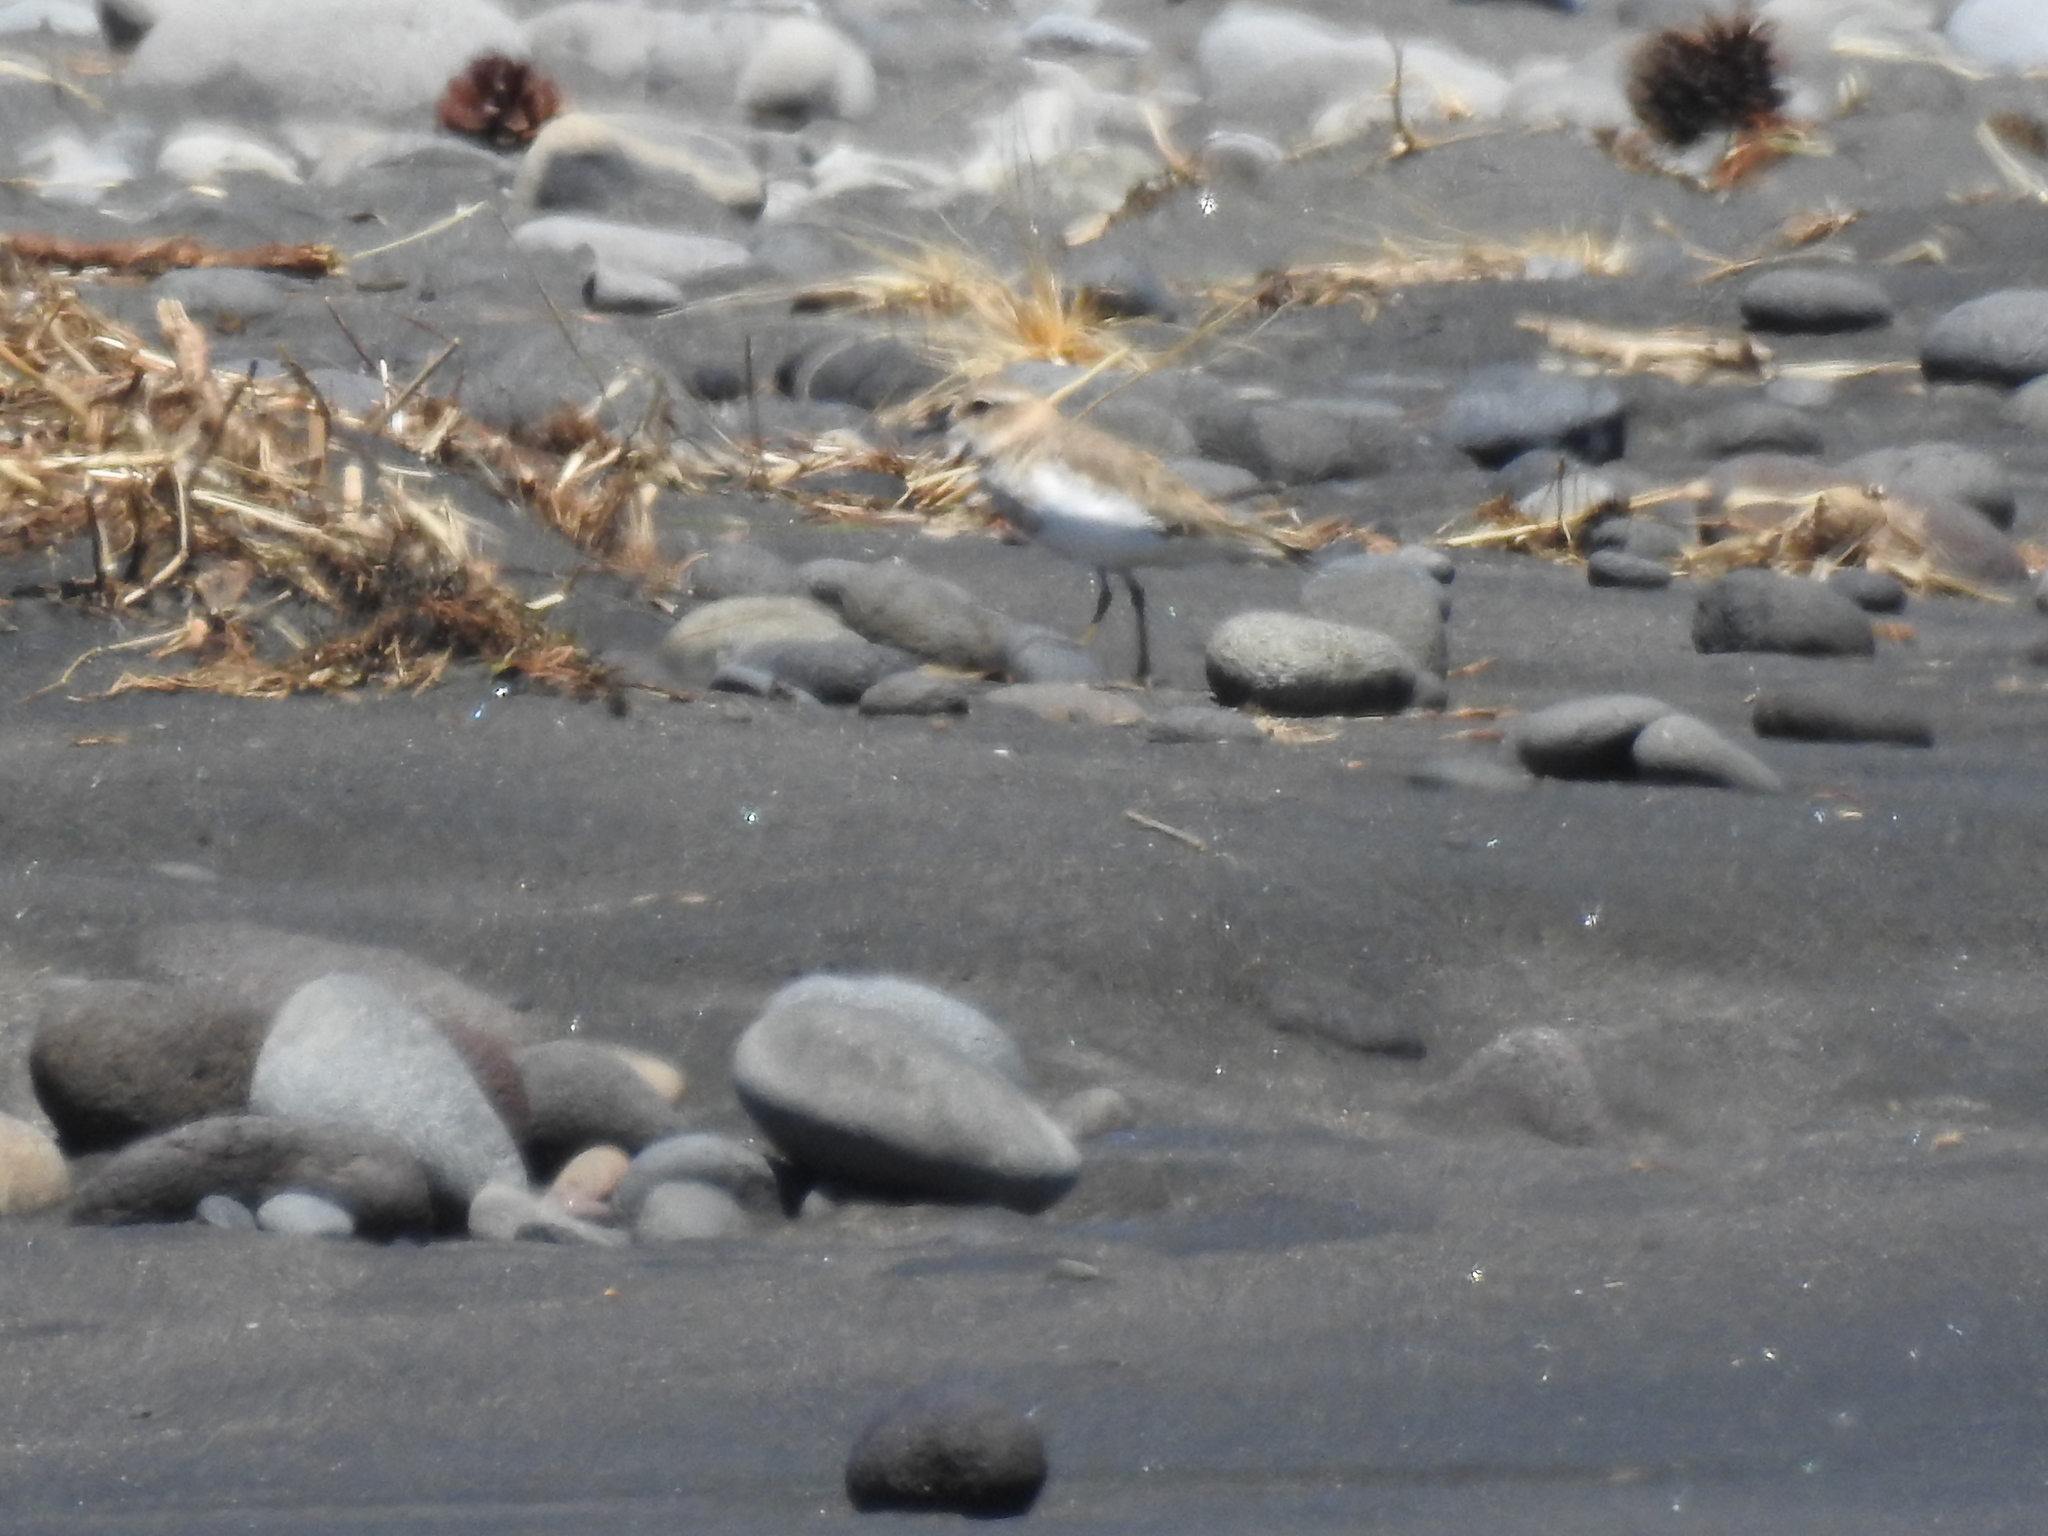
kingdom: Animalia
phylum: Chordata
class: Aves
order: Charadriiformes
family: Charadriidae
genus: Anarhynchus
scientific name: Anarhynchus
